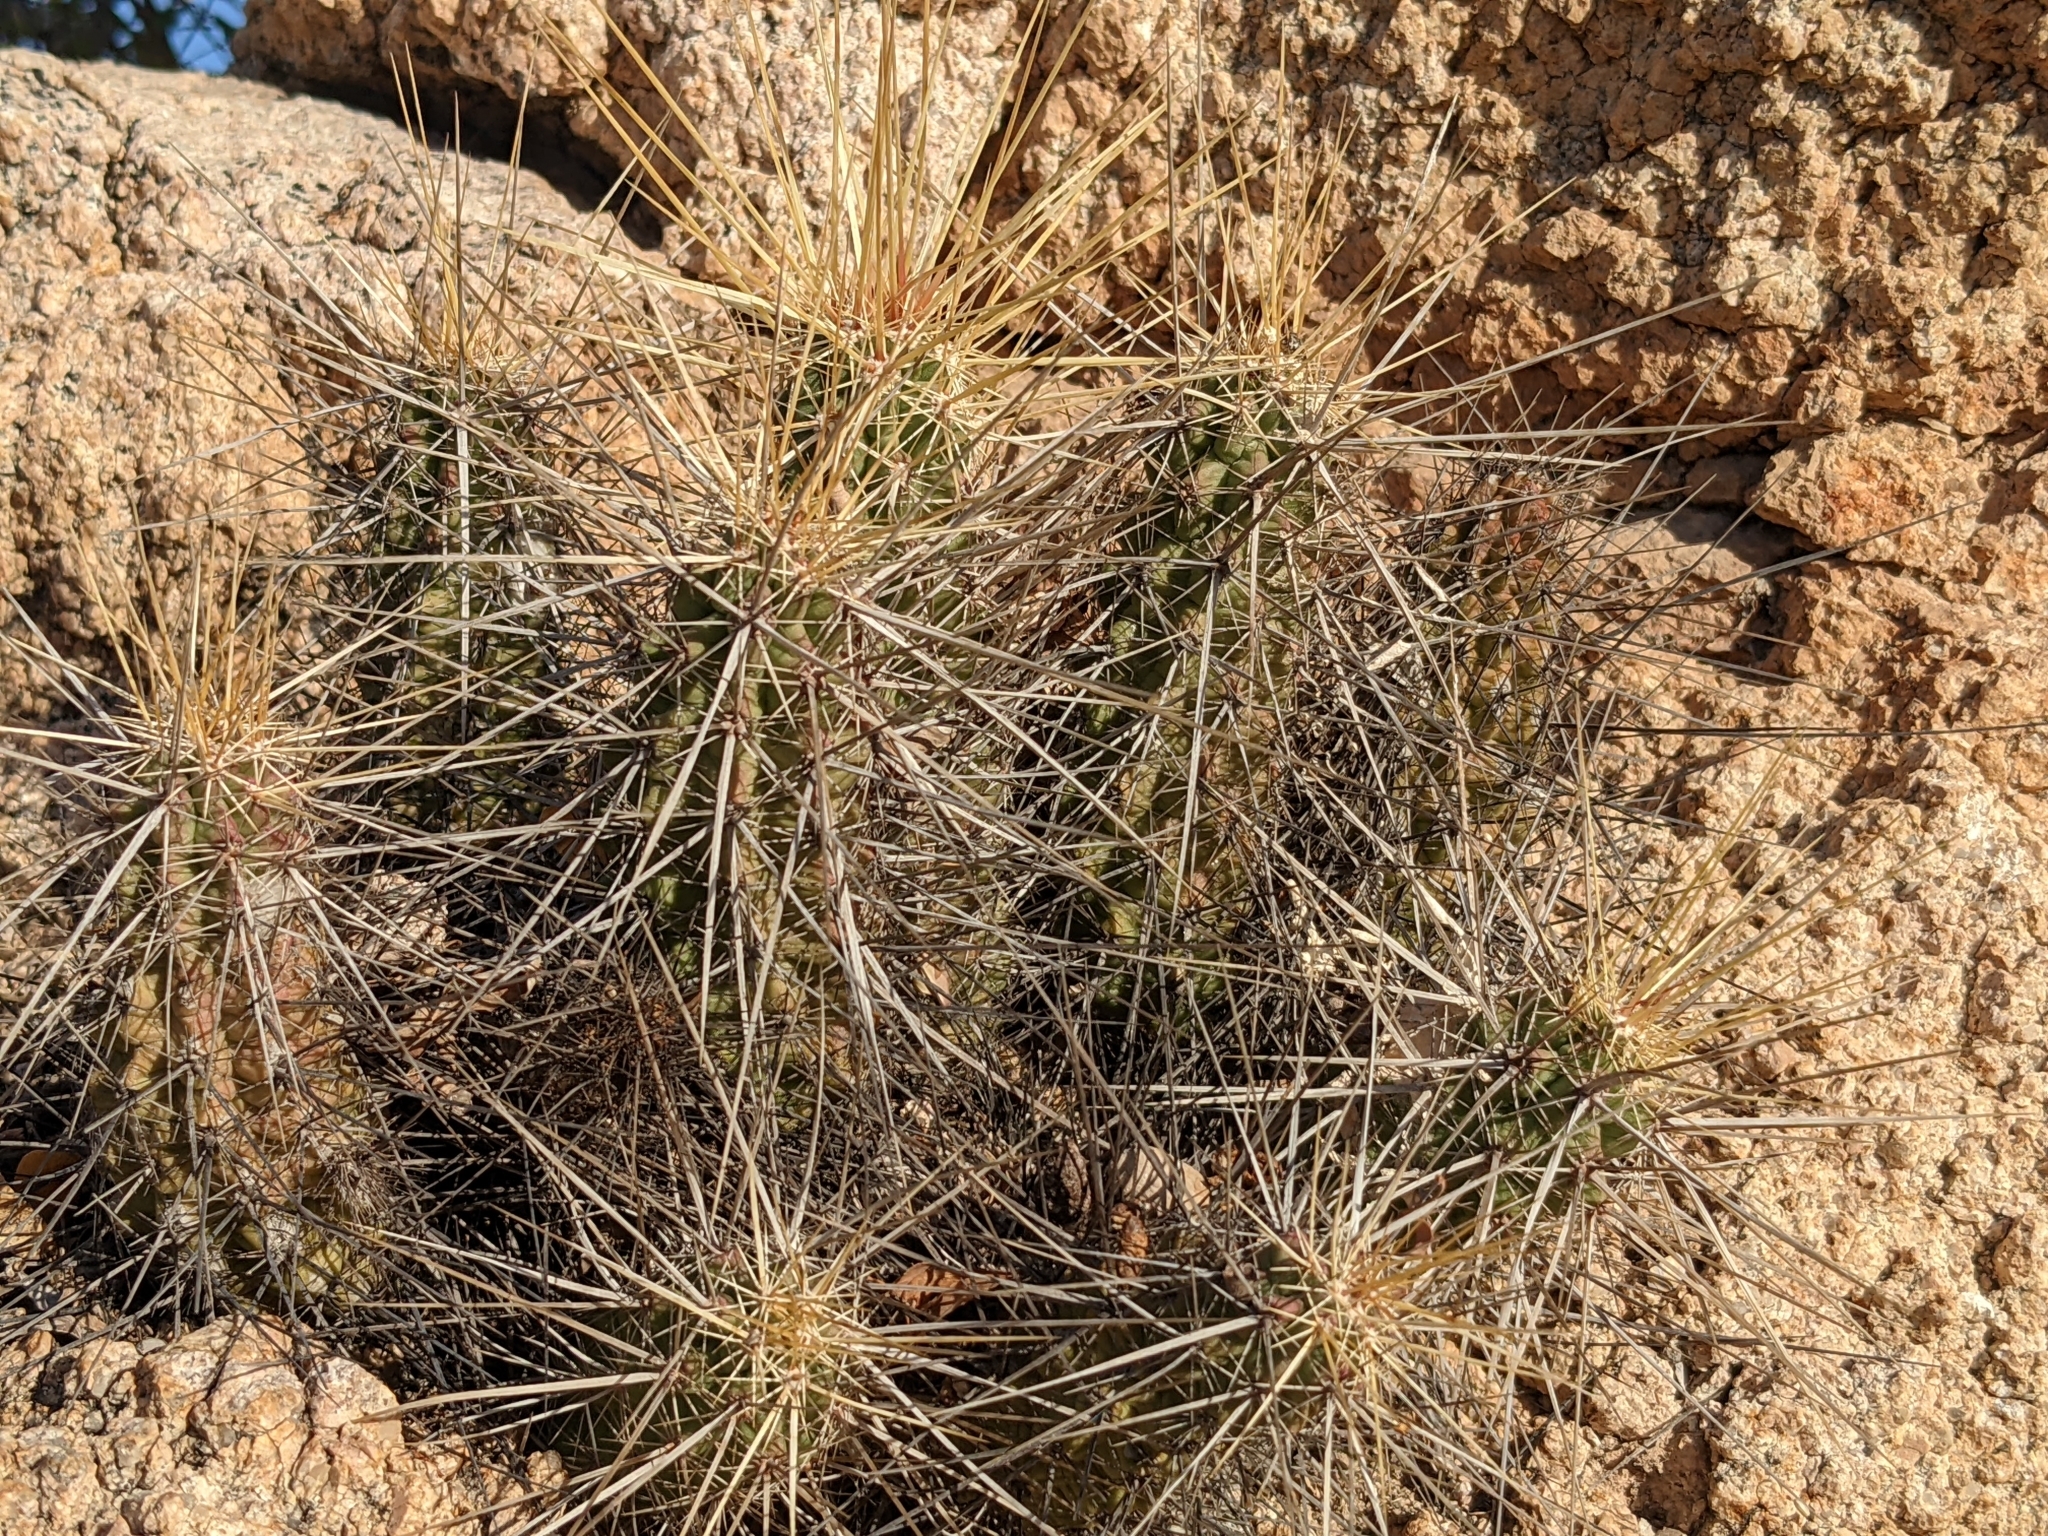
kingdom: Plantae
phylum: Tracheophyta
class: Magnoliopsida
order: Caryophyllales
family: Cactaceae
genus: Echinocereus
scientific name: Echinocereus brandegeei
